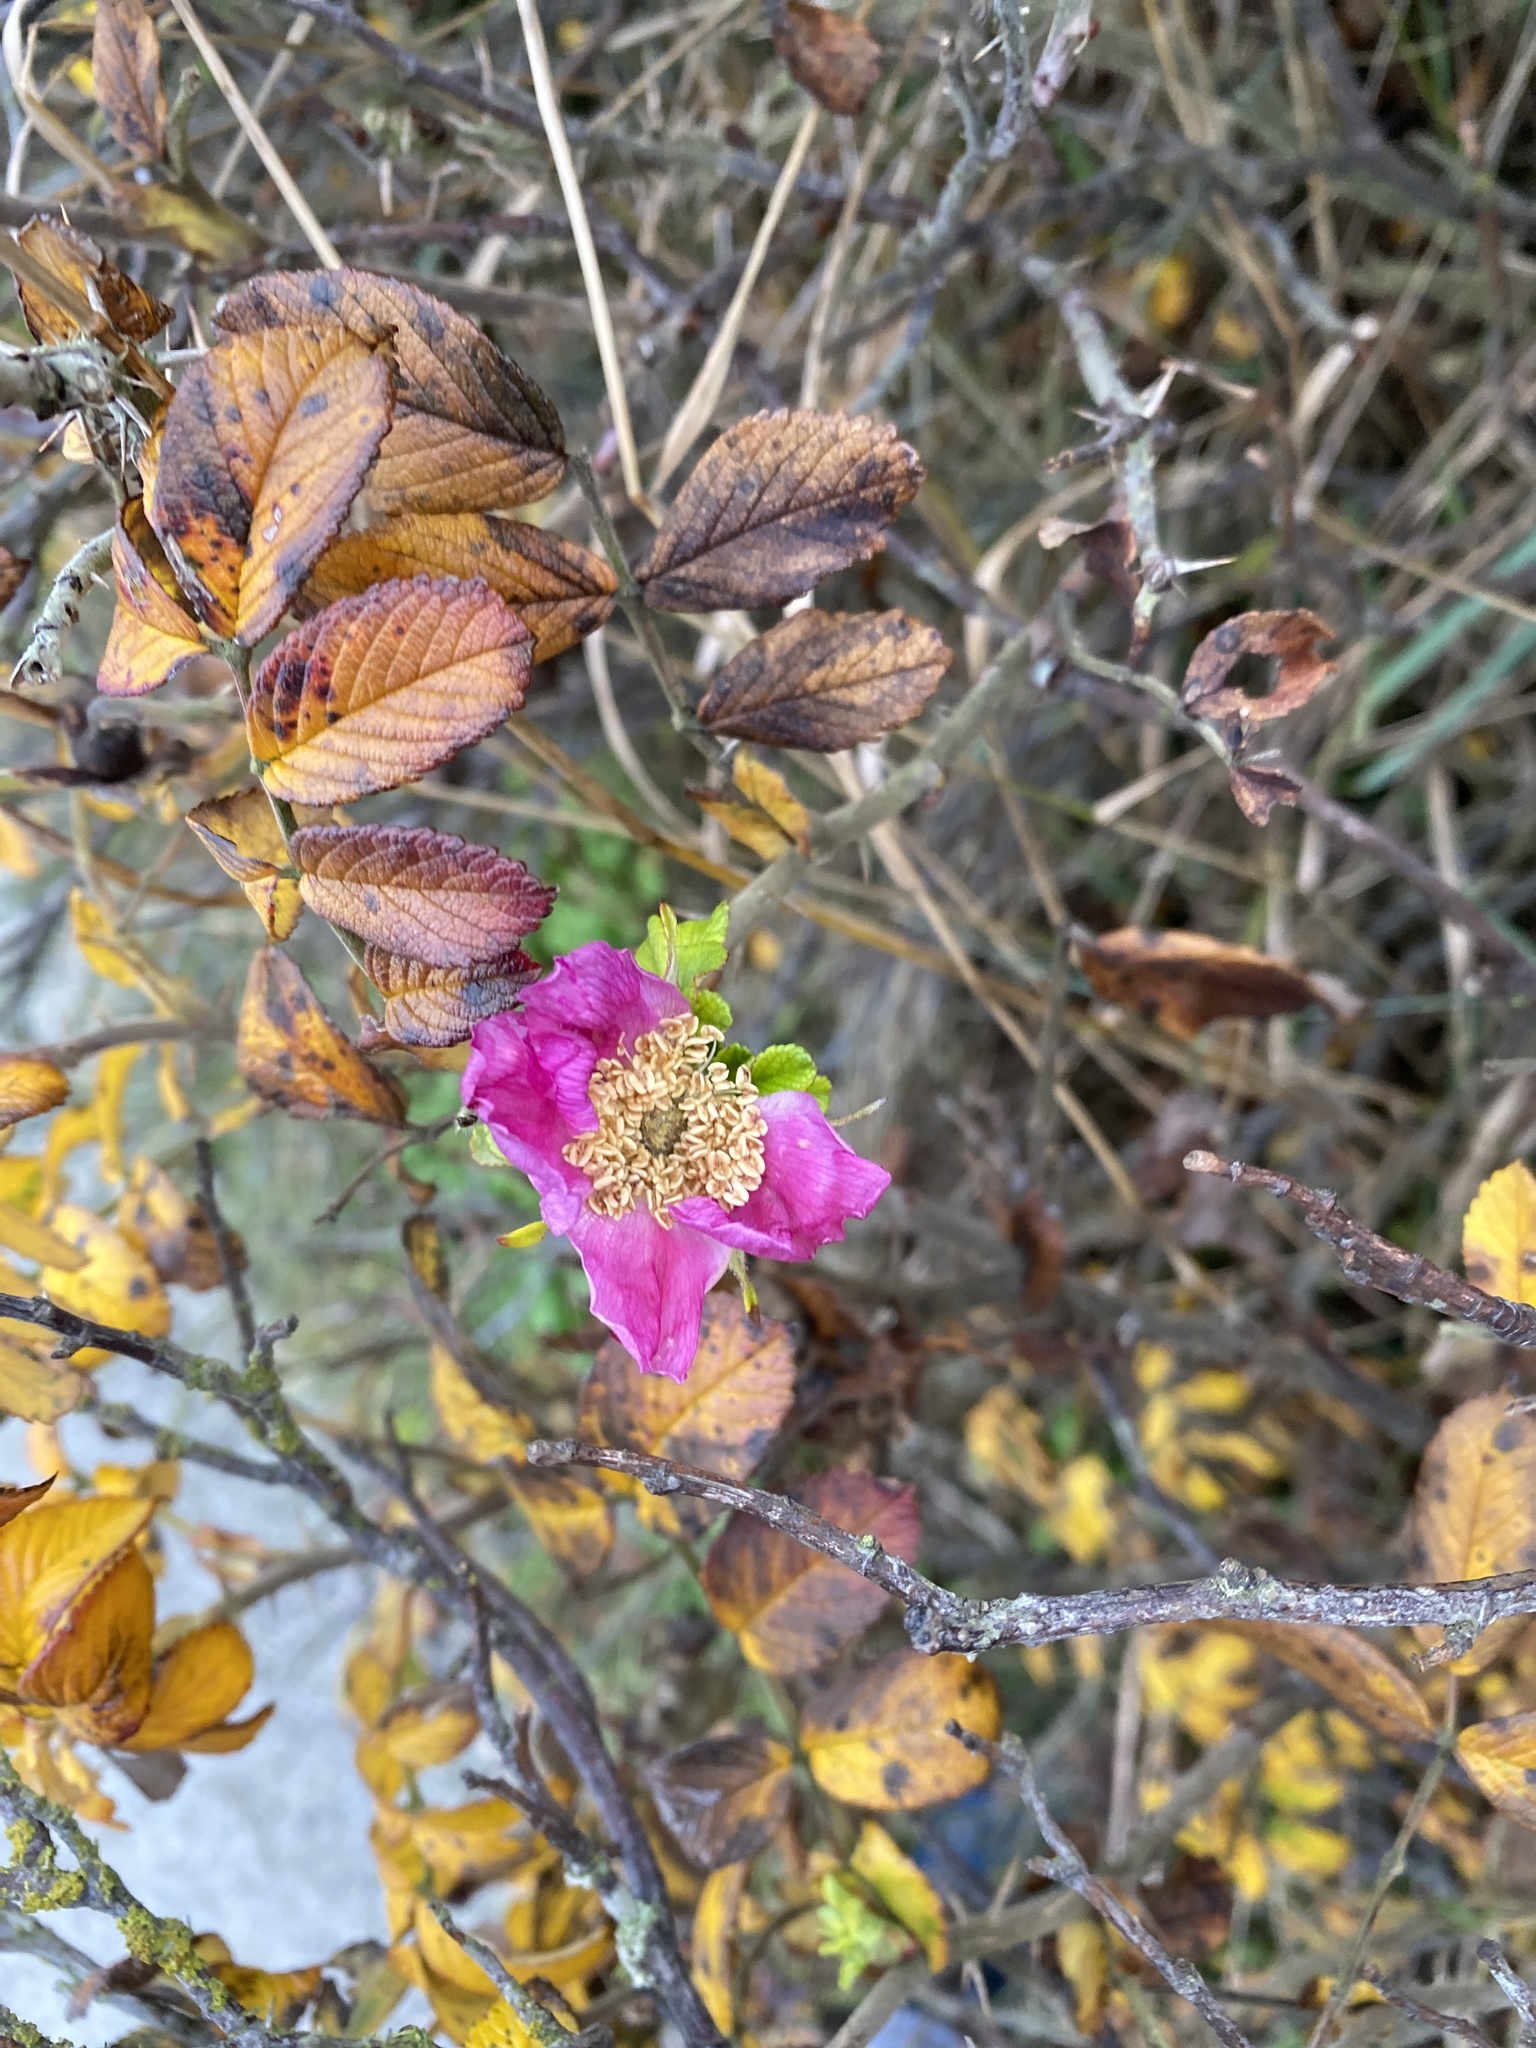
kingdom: Plantae
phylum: Tracheophyta
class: Magnoliopsida
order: Rosales
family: Rosaceae
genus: Rosa
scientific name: Rosa rugosa
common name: Japanese rose
